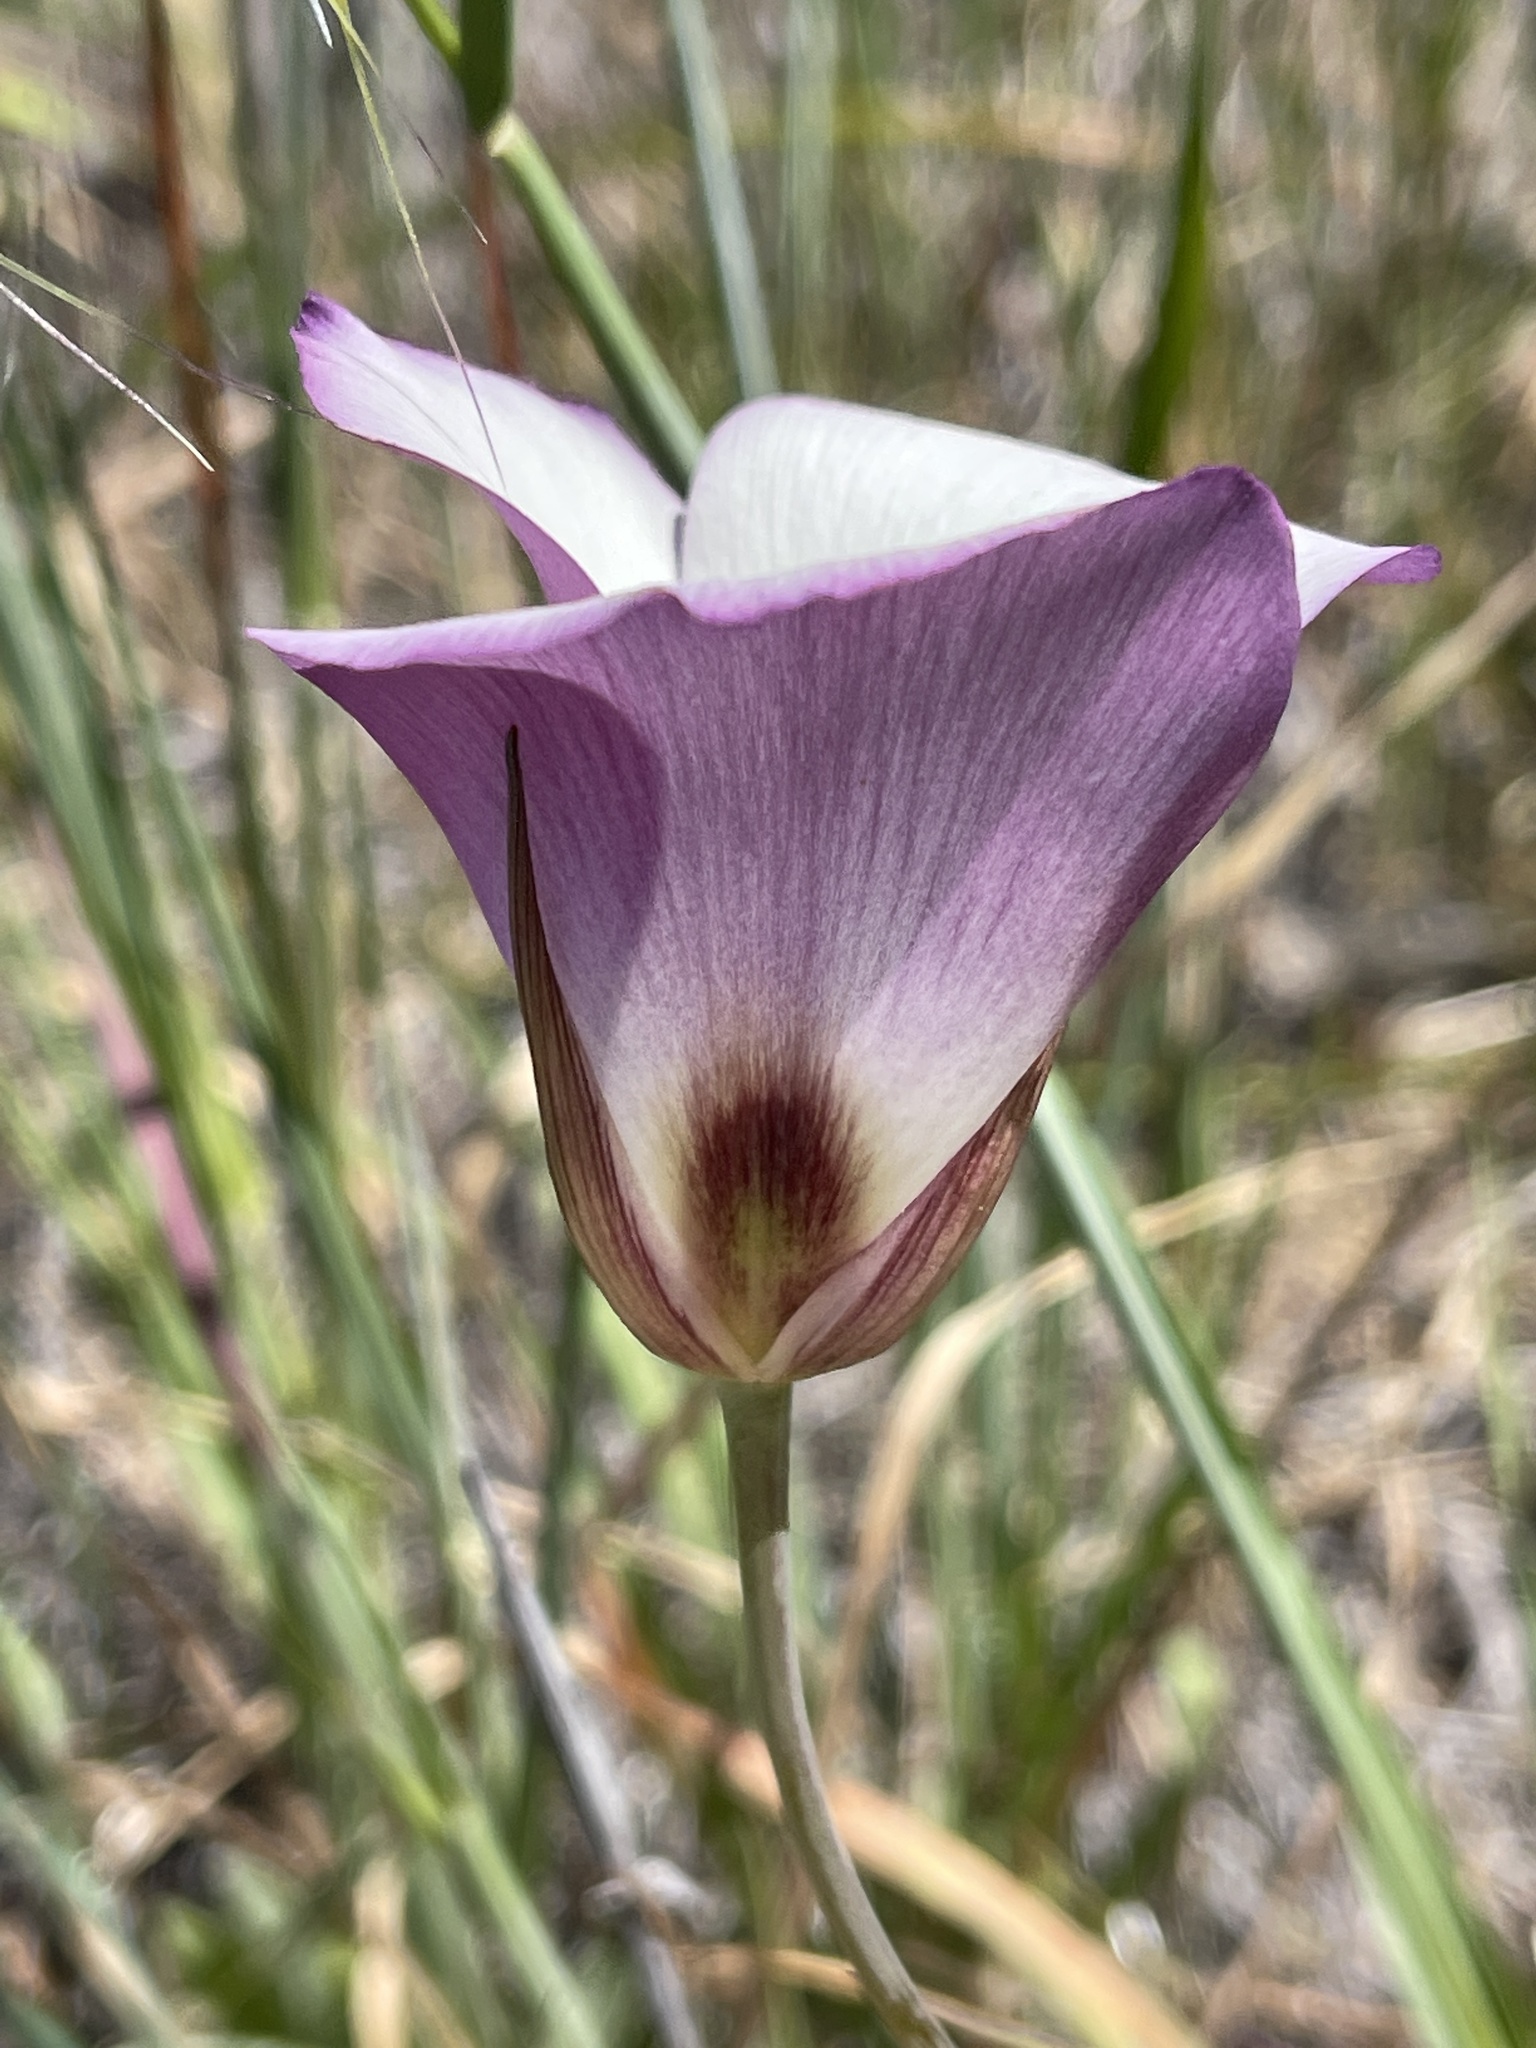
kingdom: Plantae
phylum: Tracheophyta
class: Liliopsida
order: Liliales
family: Liliaceae
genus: Calochortus
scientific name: Calochortus catalinae
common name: Catalina mariposa-lily
